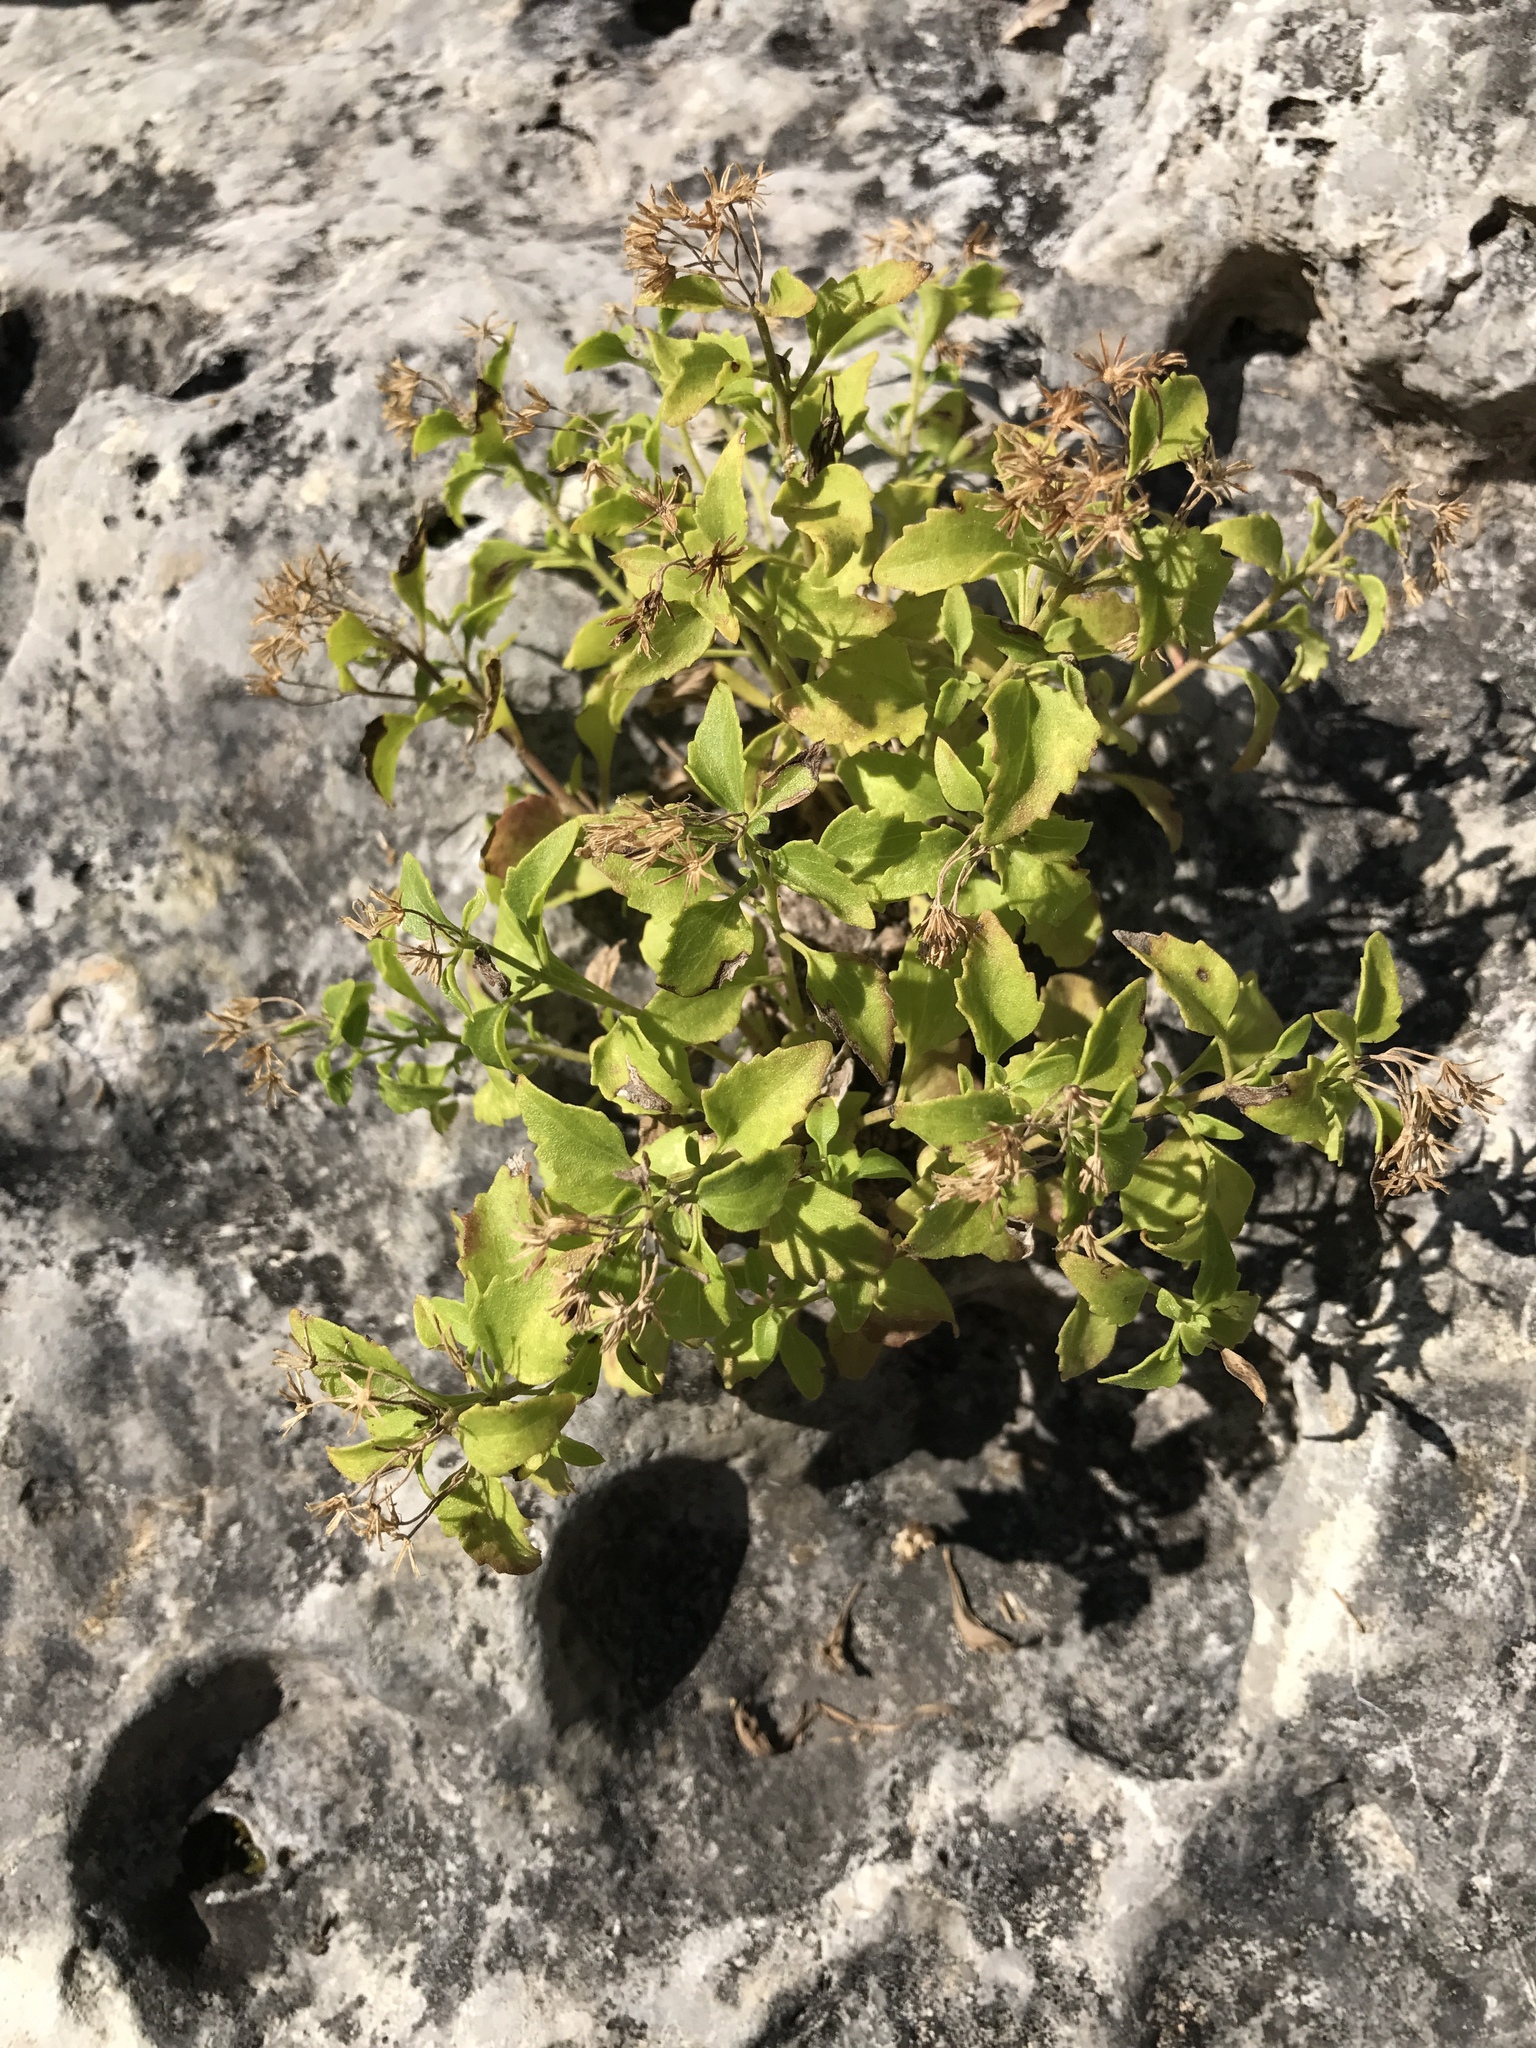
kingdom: Plantae
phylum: Tracheophyta
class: Magnoliopsida
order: Asterales
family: Asteraceae
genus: Laphamia
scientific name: Laphamia lindheimeri
